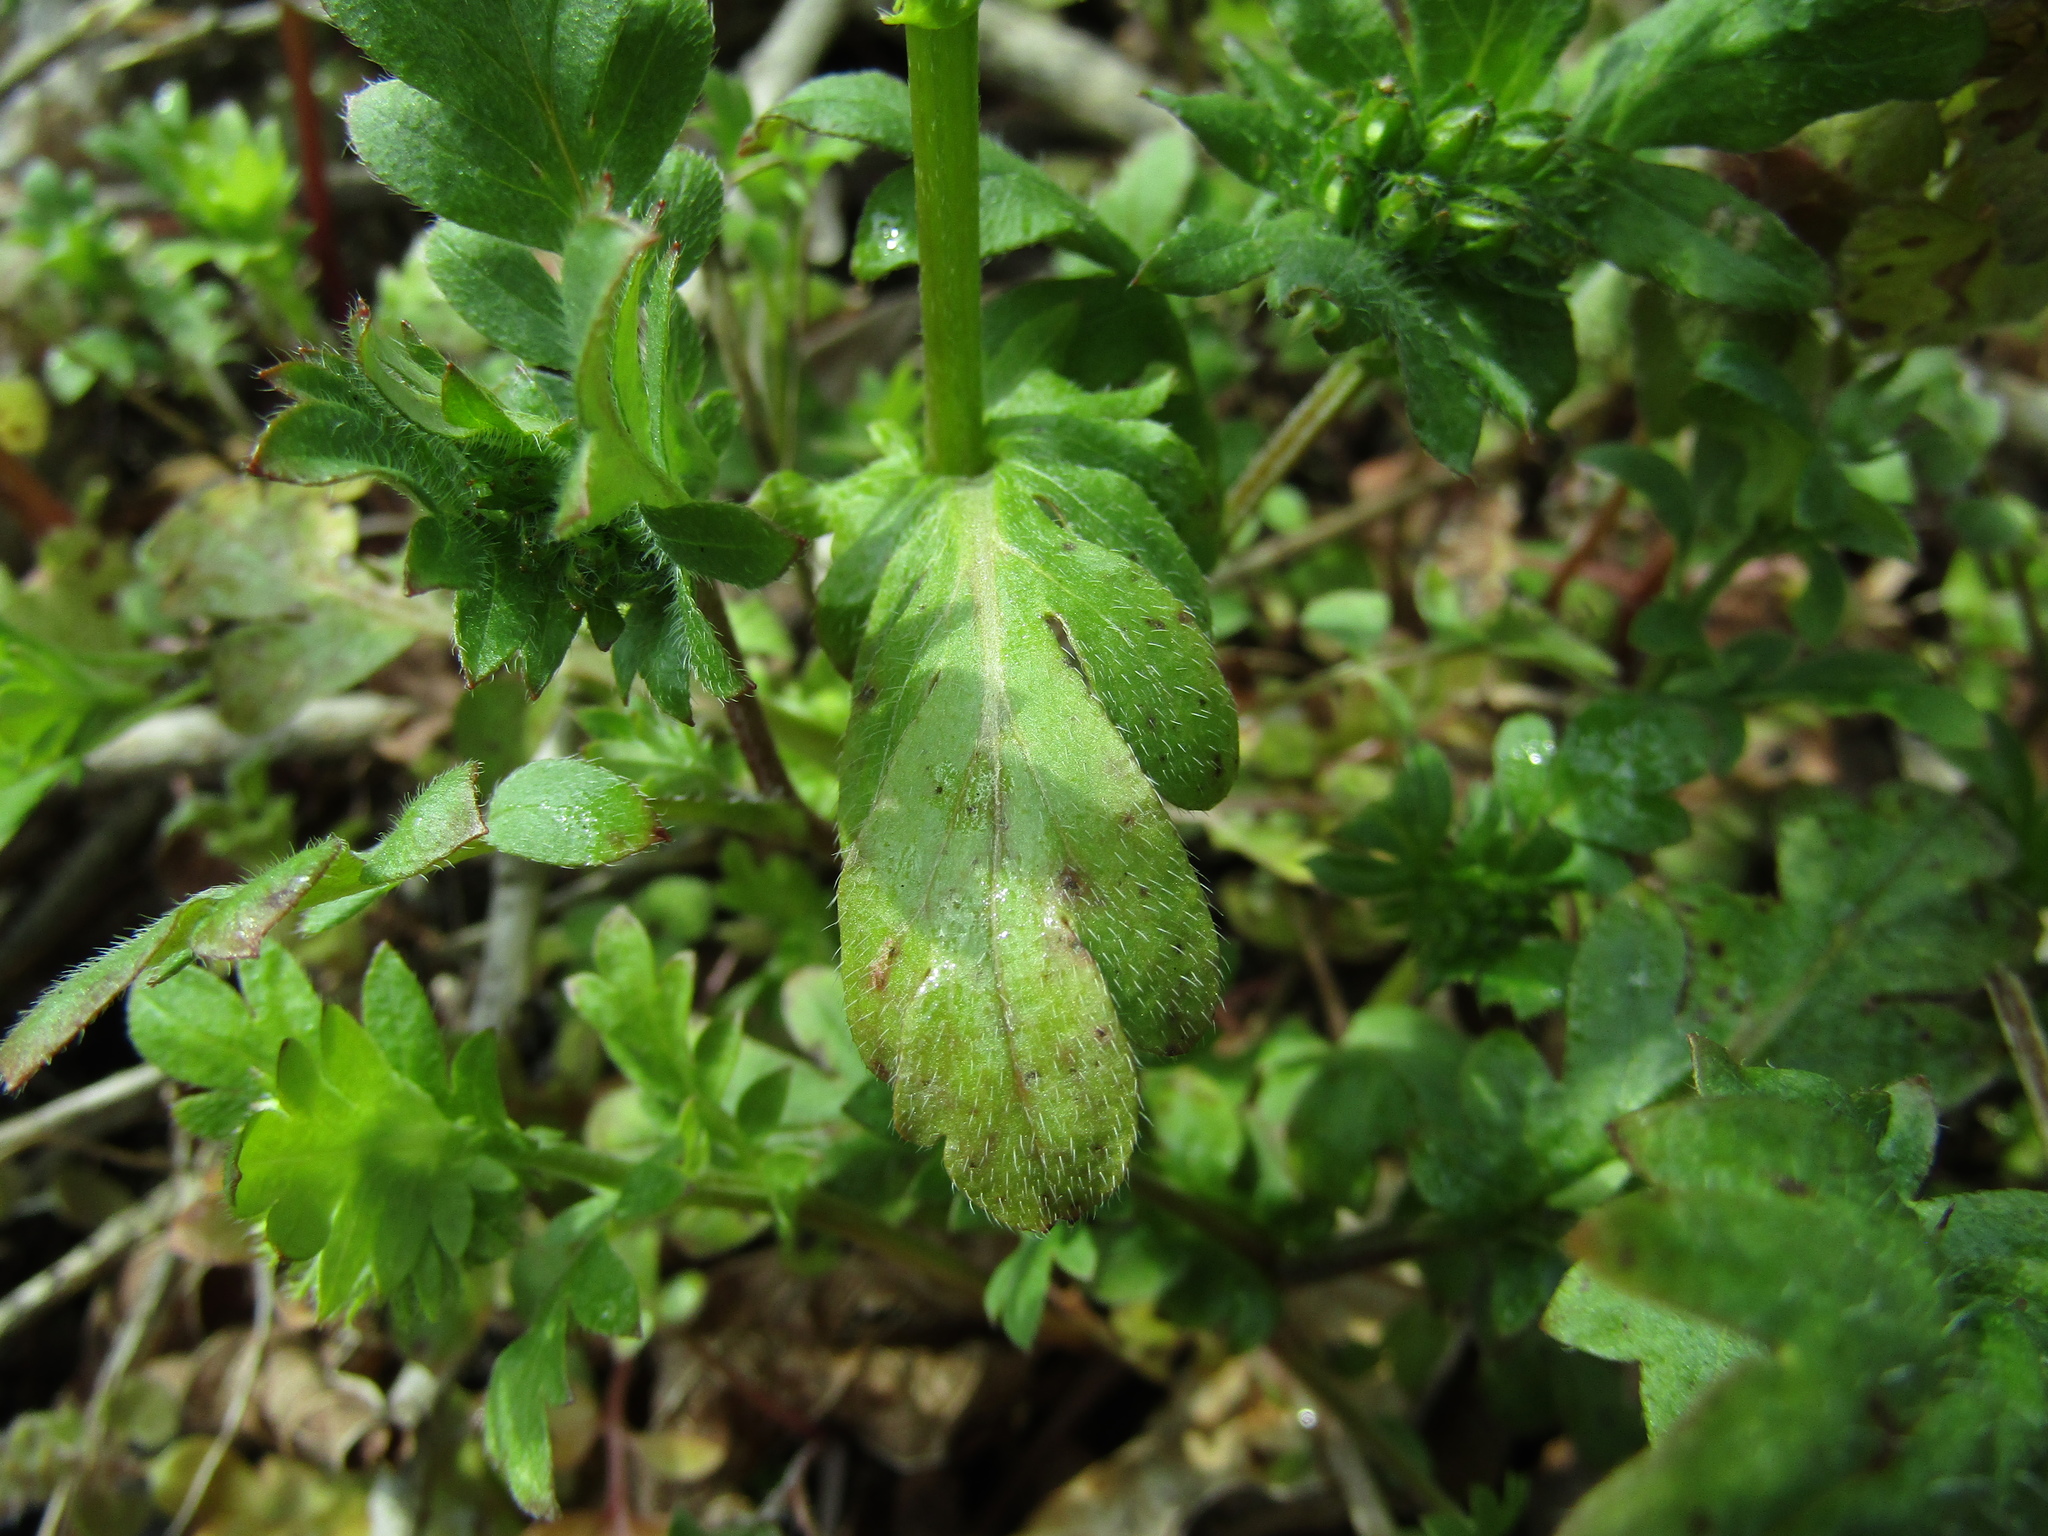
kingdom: Plantae
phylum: Tracheophyta
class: Magnoliopsida
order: Boraginales
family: Hydrophyllaceae
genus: Phacelia
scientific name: Phacelia purshii
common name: Miami-mist
